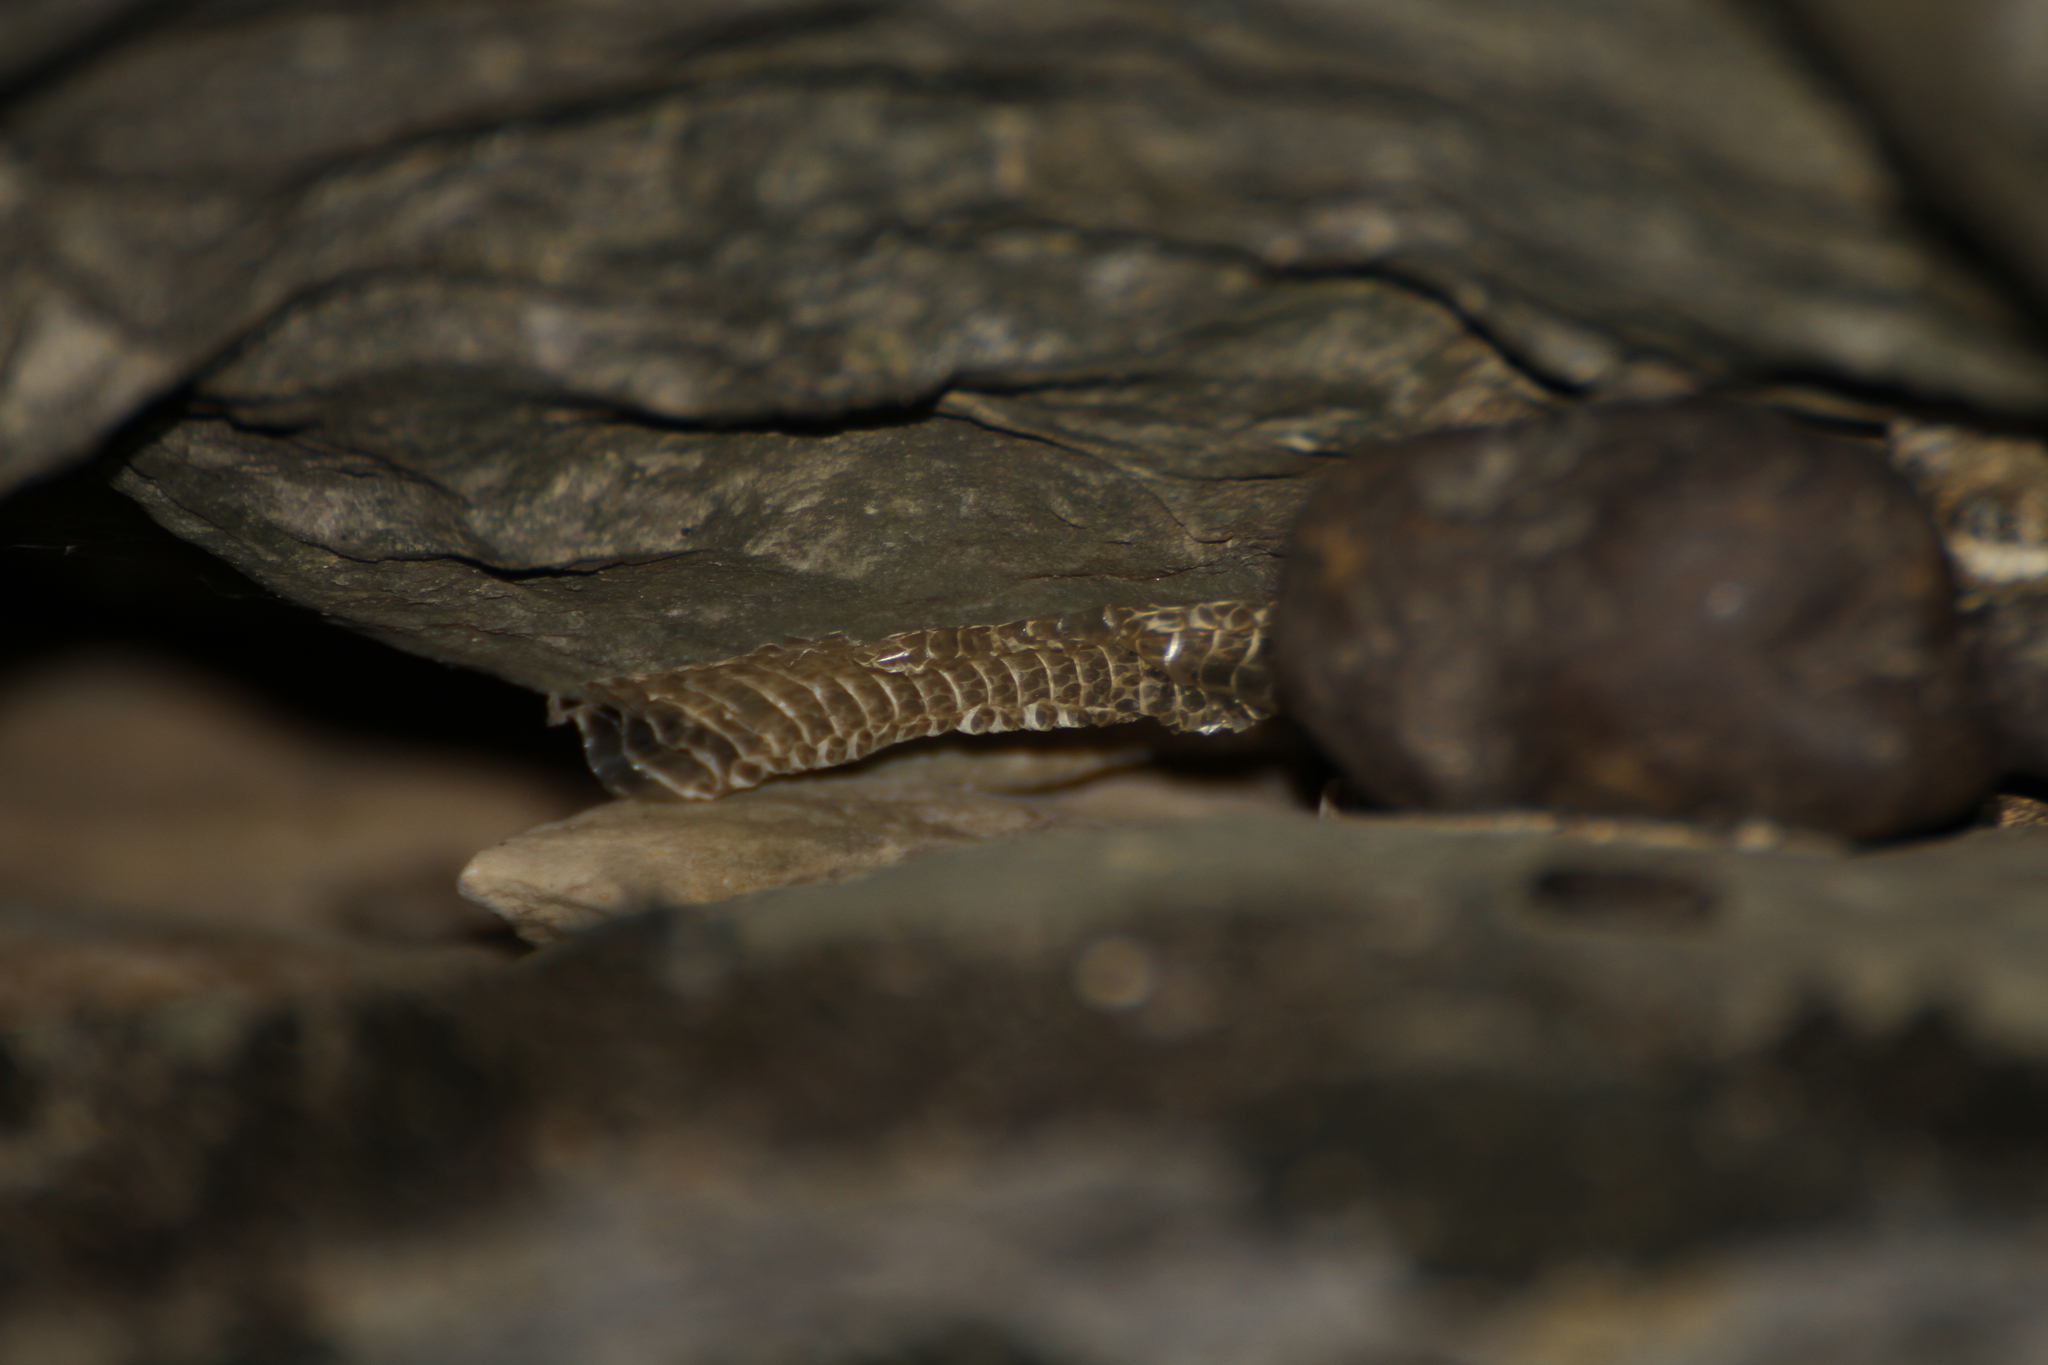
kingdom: Animalia
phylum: Chordata
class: Squamata
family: Colubridae
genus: Natrix
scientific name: Natrix maura
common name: Viperine water snake
